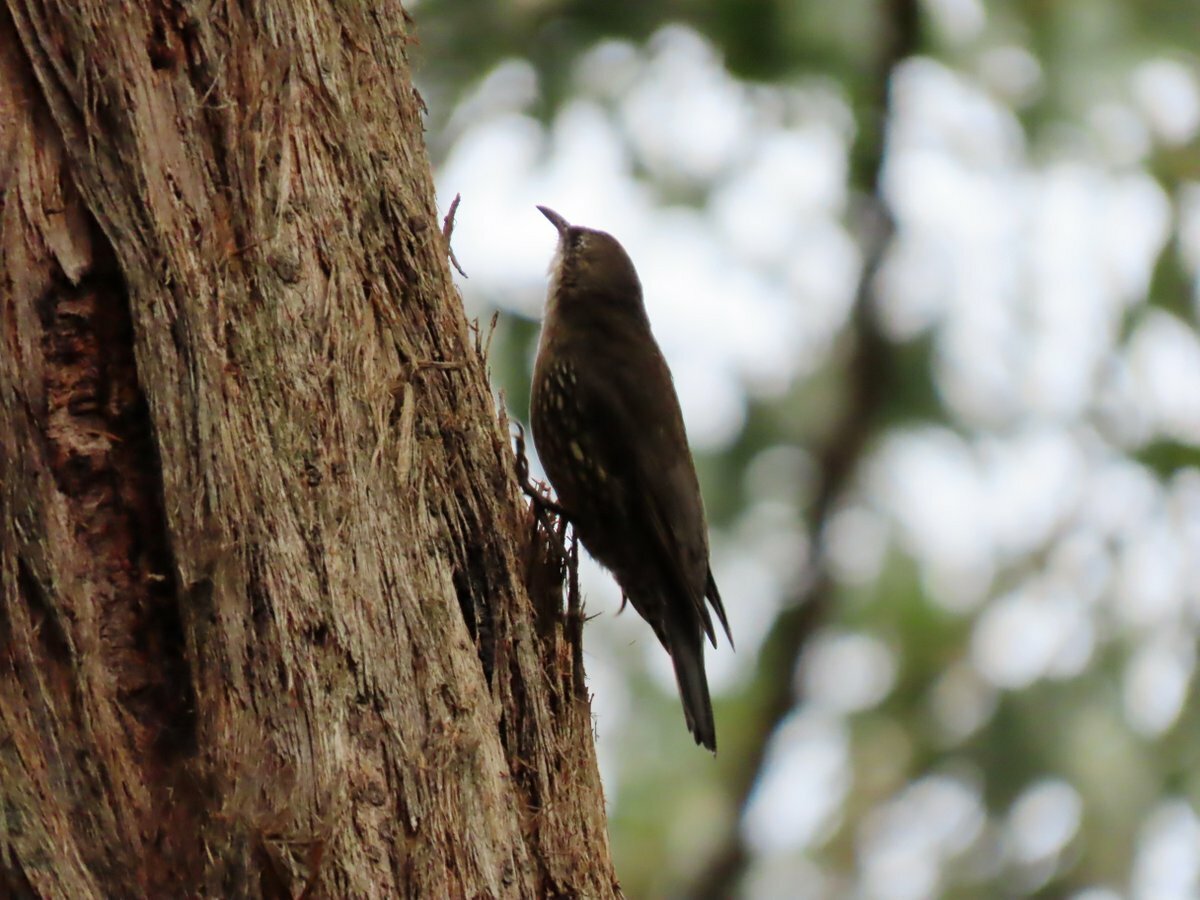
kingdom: Animalia
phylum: Chordata
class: Aves
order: Passeriformes
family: Climacteridae
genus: Cormobates
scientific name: Cormobates leucophaea
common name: White-throated treecreeper
